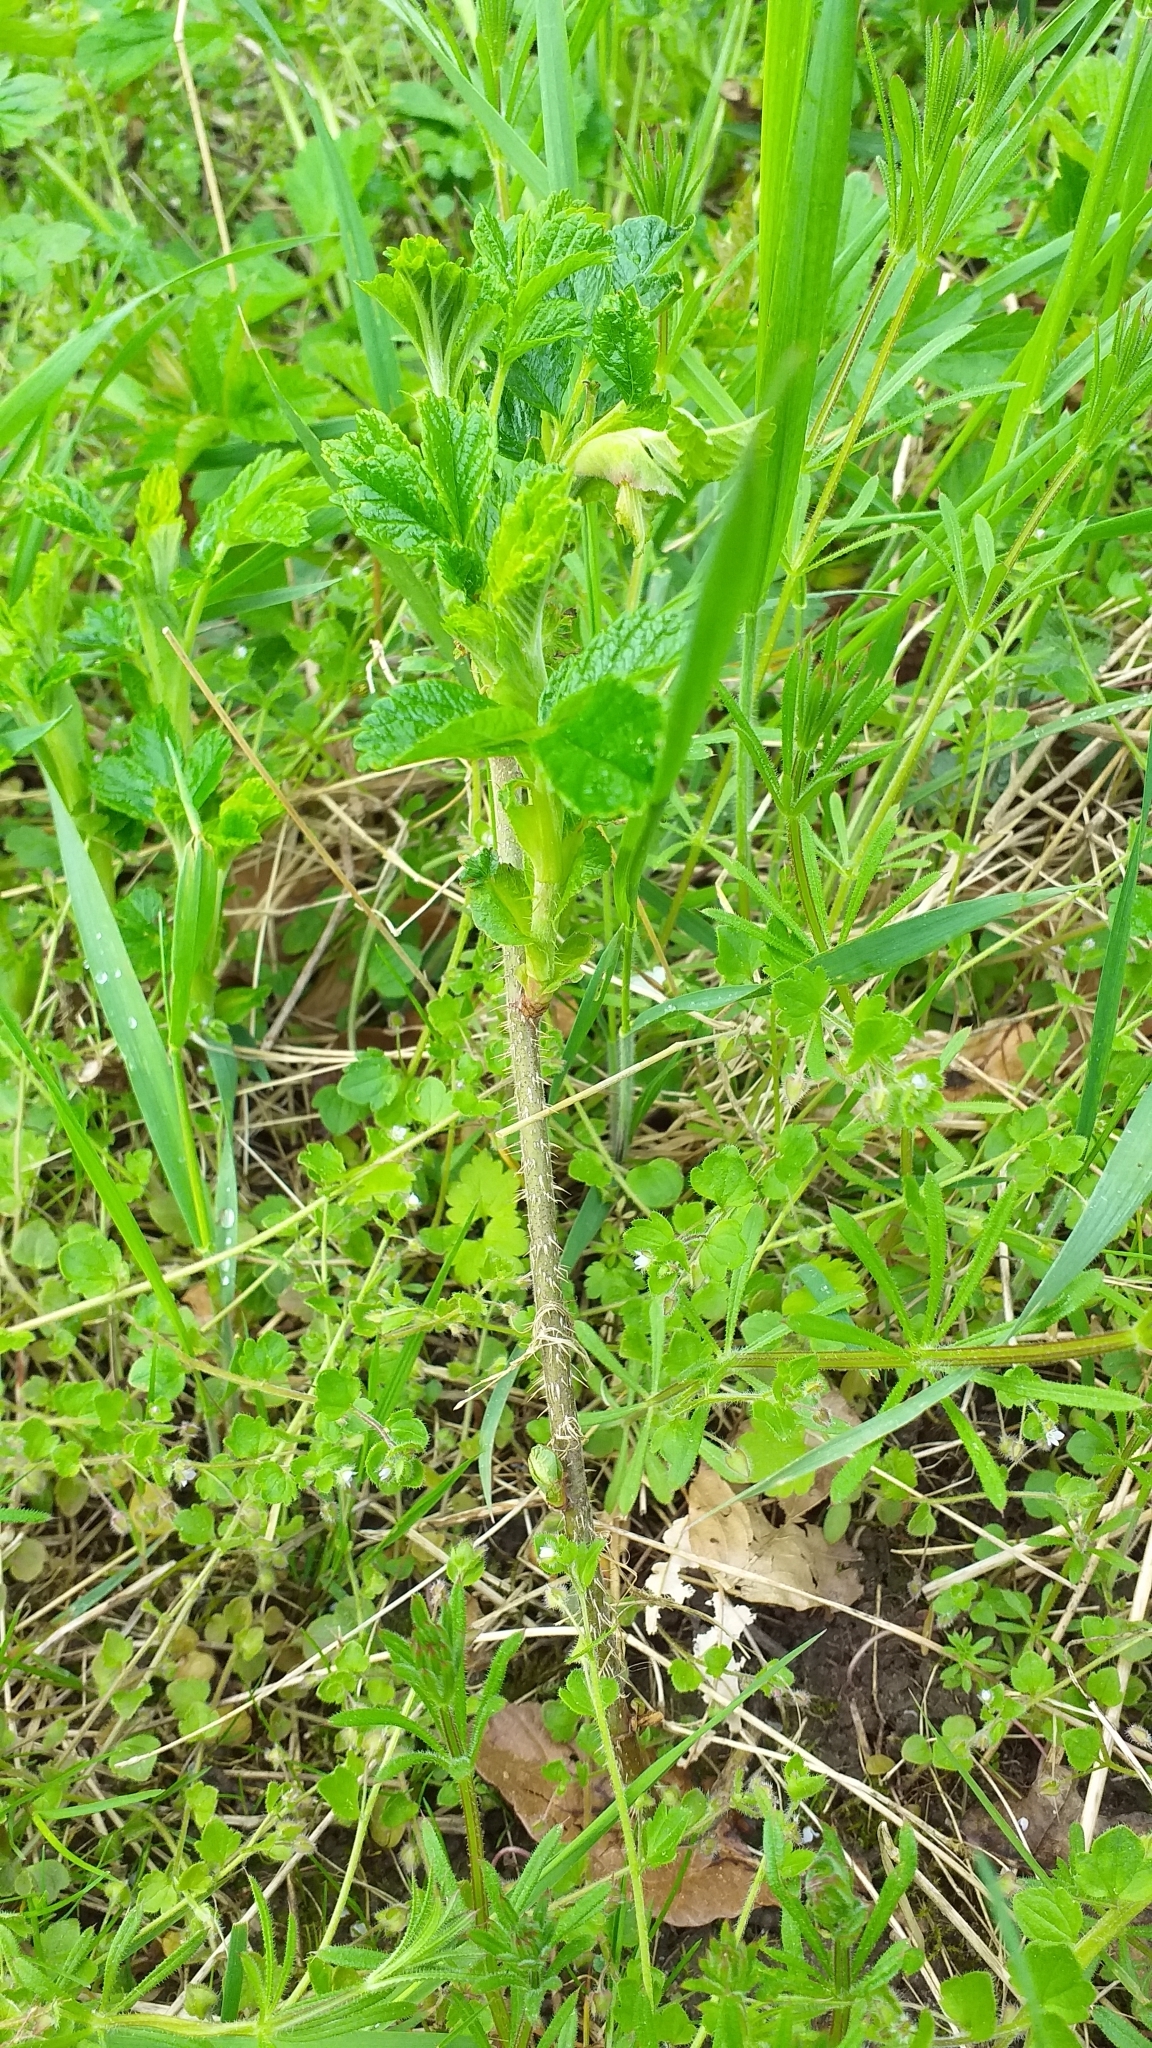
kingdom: Plantae
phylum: Tracheophyta
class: Magnoliopsida
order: Rosales
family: Rosaceae
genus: Rosa
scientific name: Rosa rugosa
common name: Japanese rose
